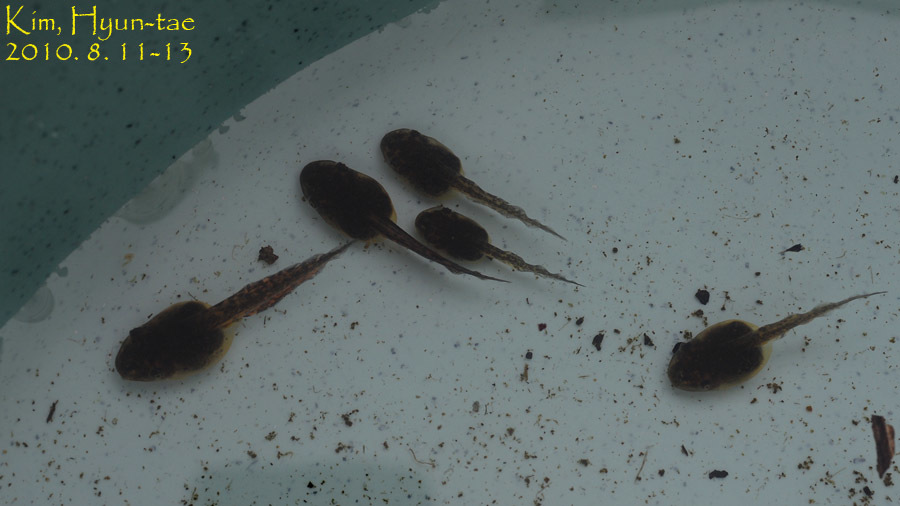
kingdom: Animalia
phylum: Chordata
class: Amphibia
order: Anura
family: Hylidae
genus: Dryophytes
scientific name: Dryophytes japonicus
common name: Japanese treefrog
